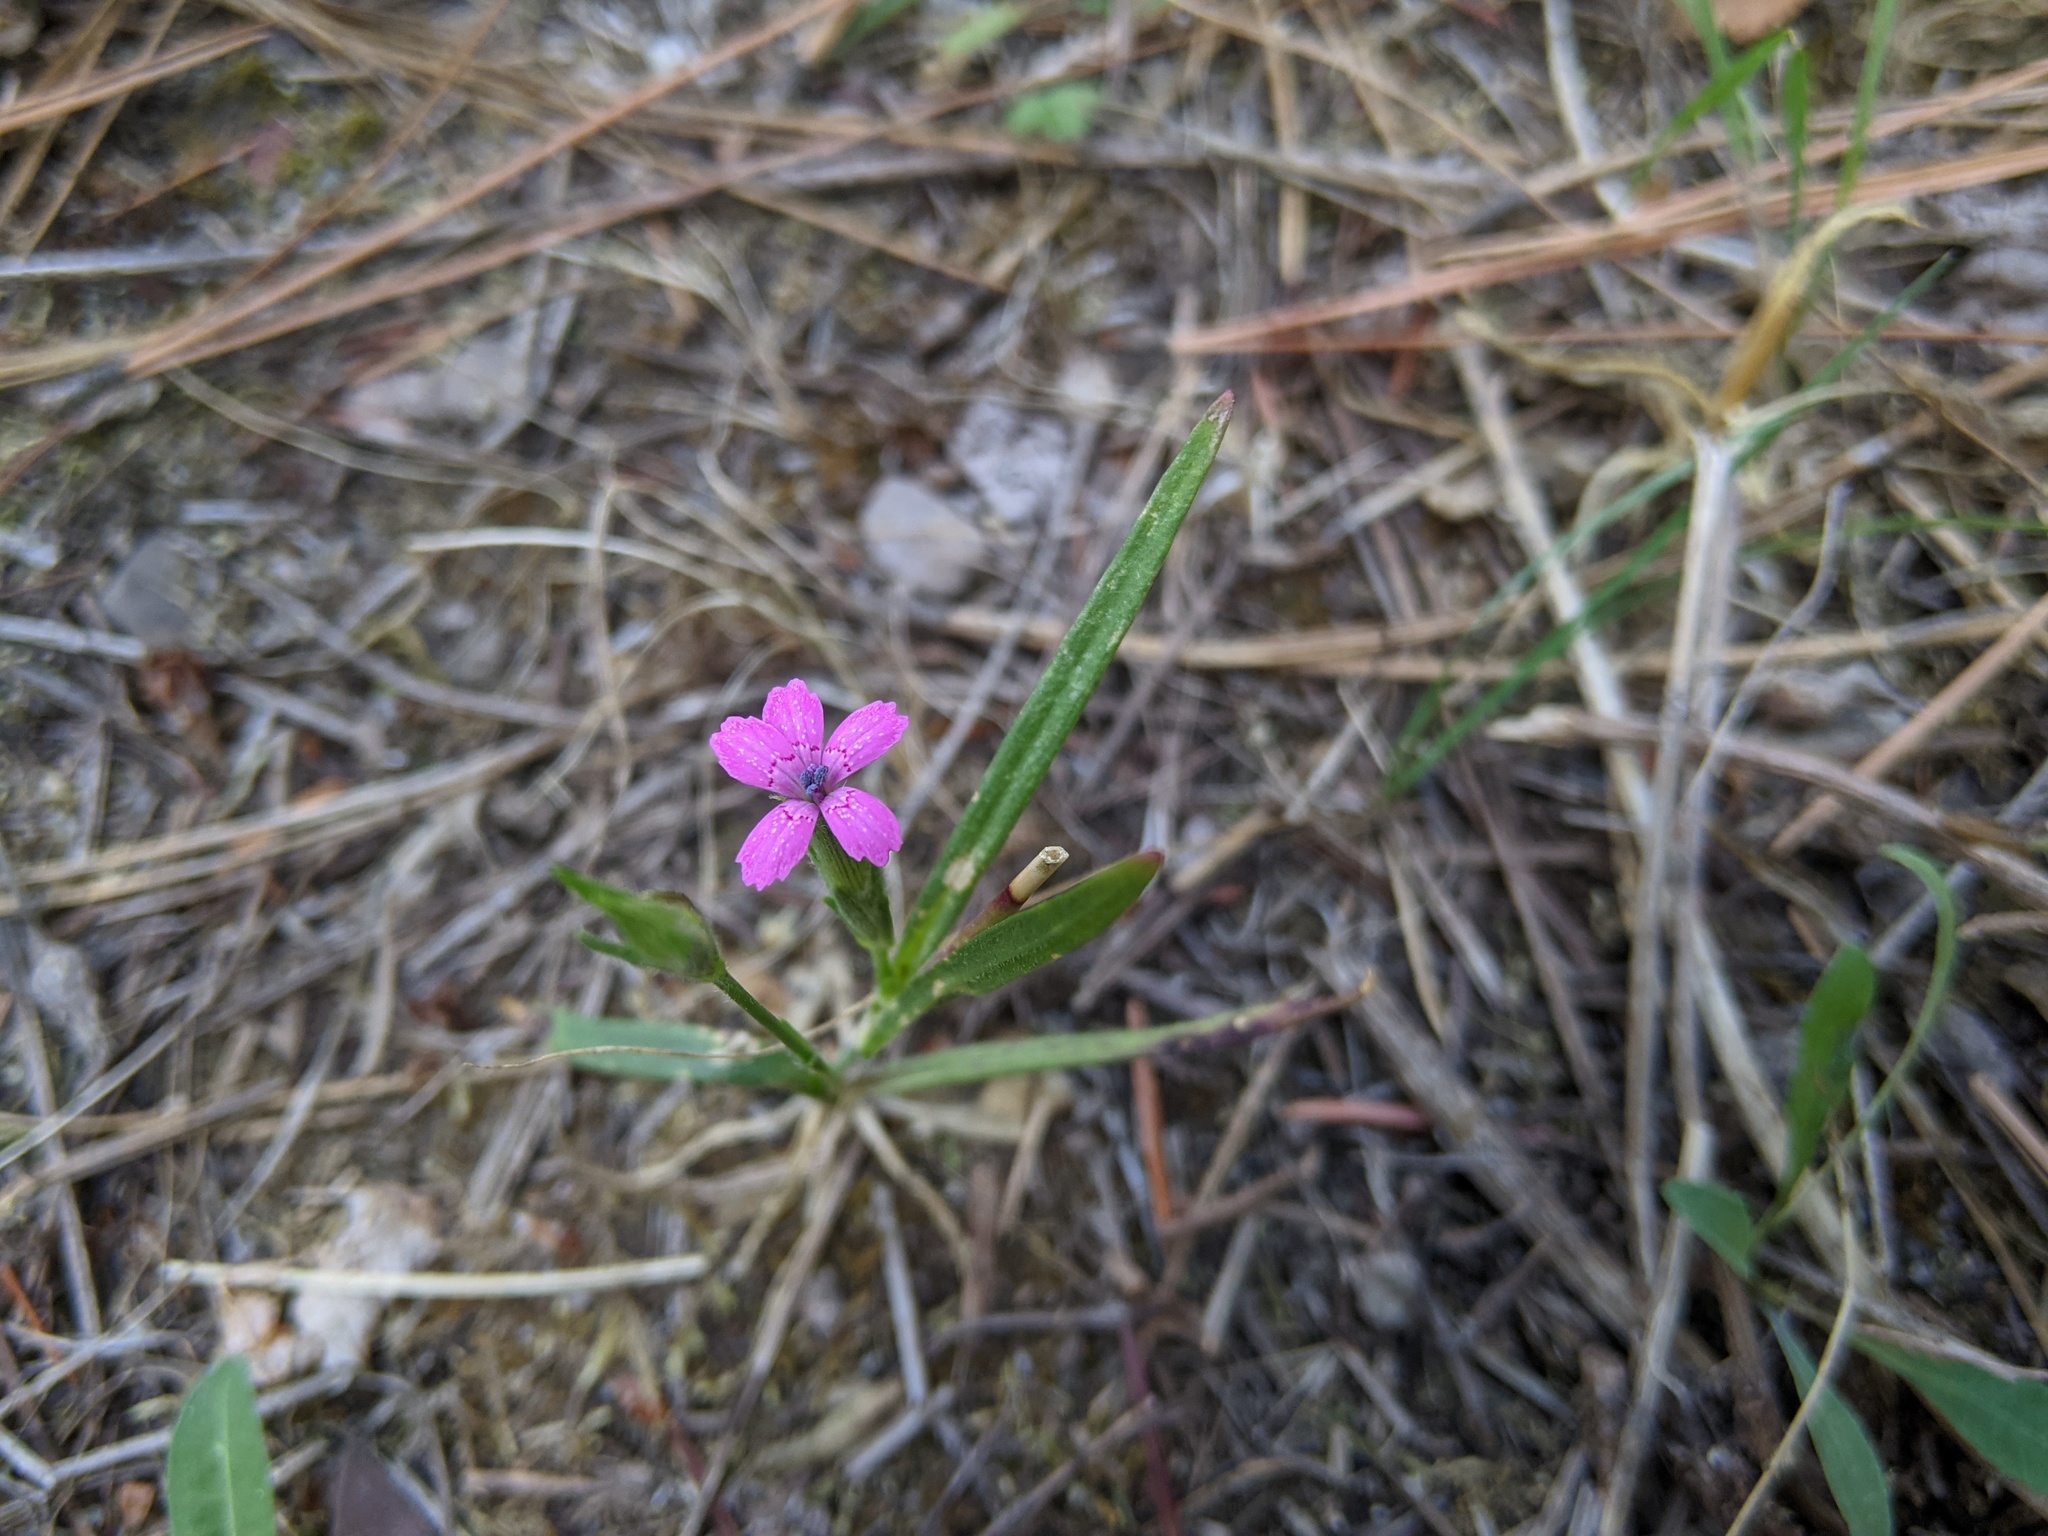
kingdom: Plantae
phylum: Tracheophyta
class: Magnoliopsida
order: Caryophyllales
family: Caryophyllaceae
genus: Dianthus
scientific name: Dianthus armeria
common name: Deptford pink
